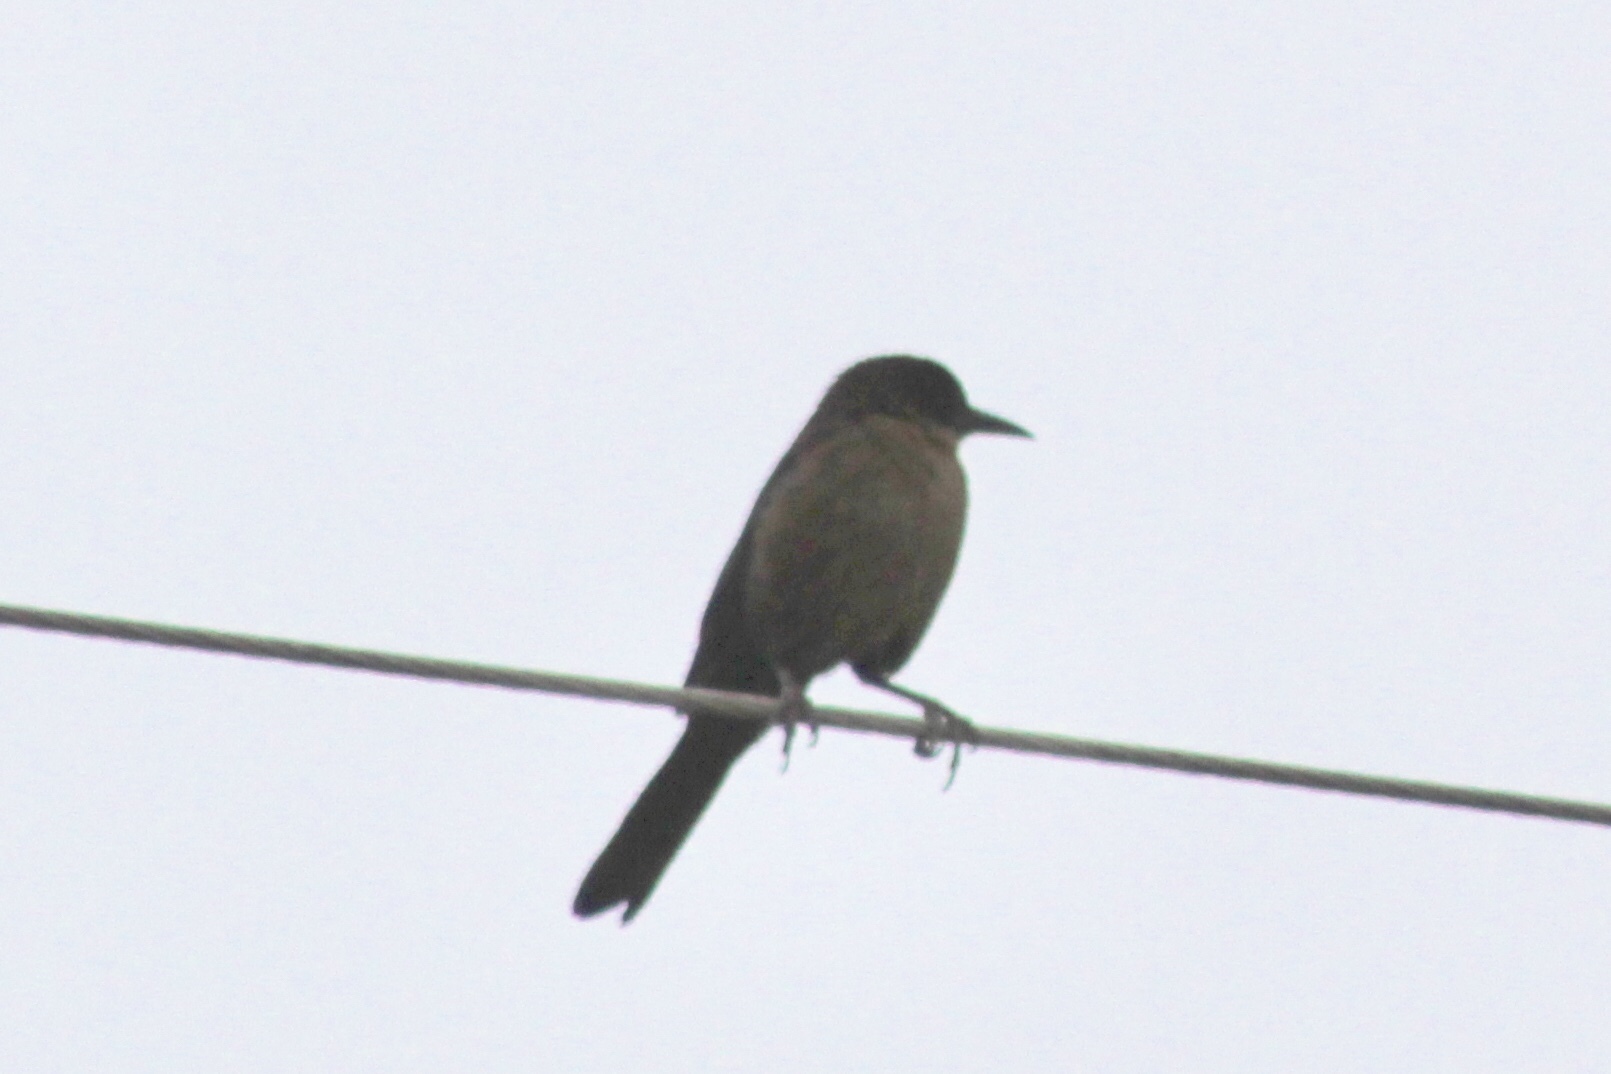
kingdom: Animalia
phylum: Chordata
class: Aves
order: Passeriformes
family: Icteridae
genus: Quiscalus
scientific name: Quiscalus mexicanus
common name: Great-tailed grackle
